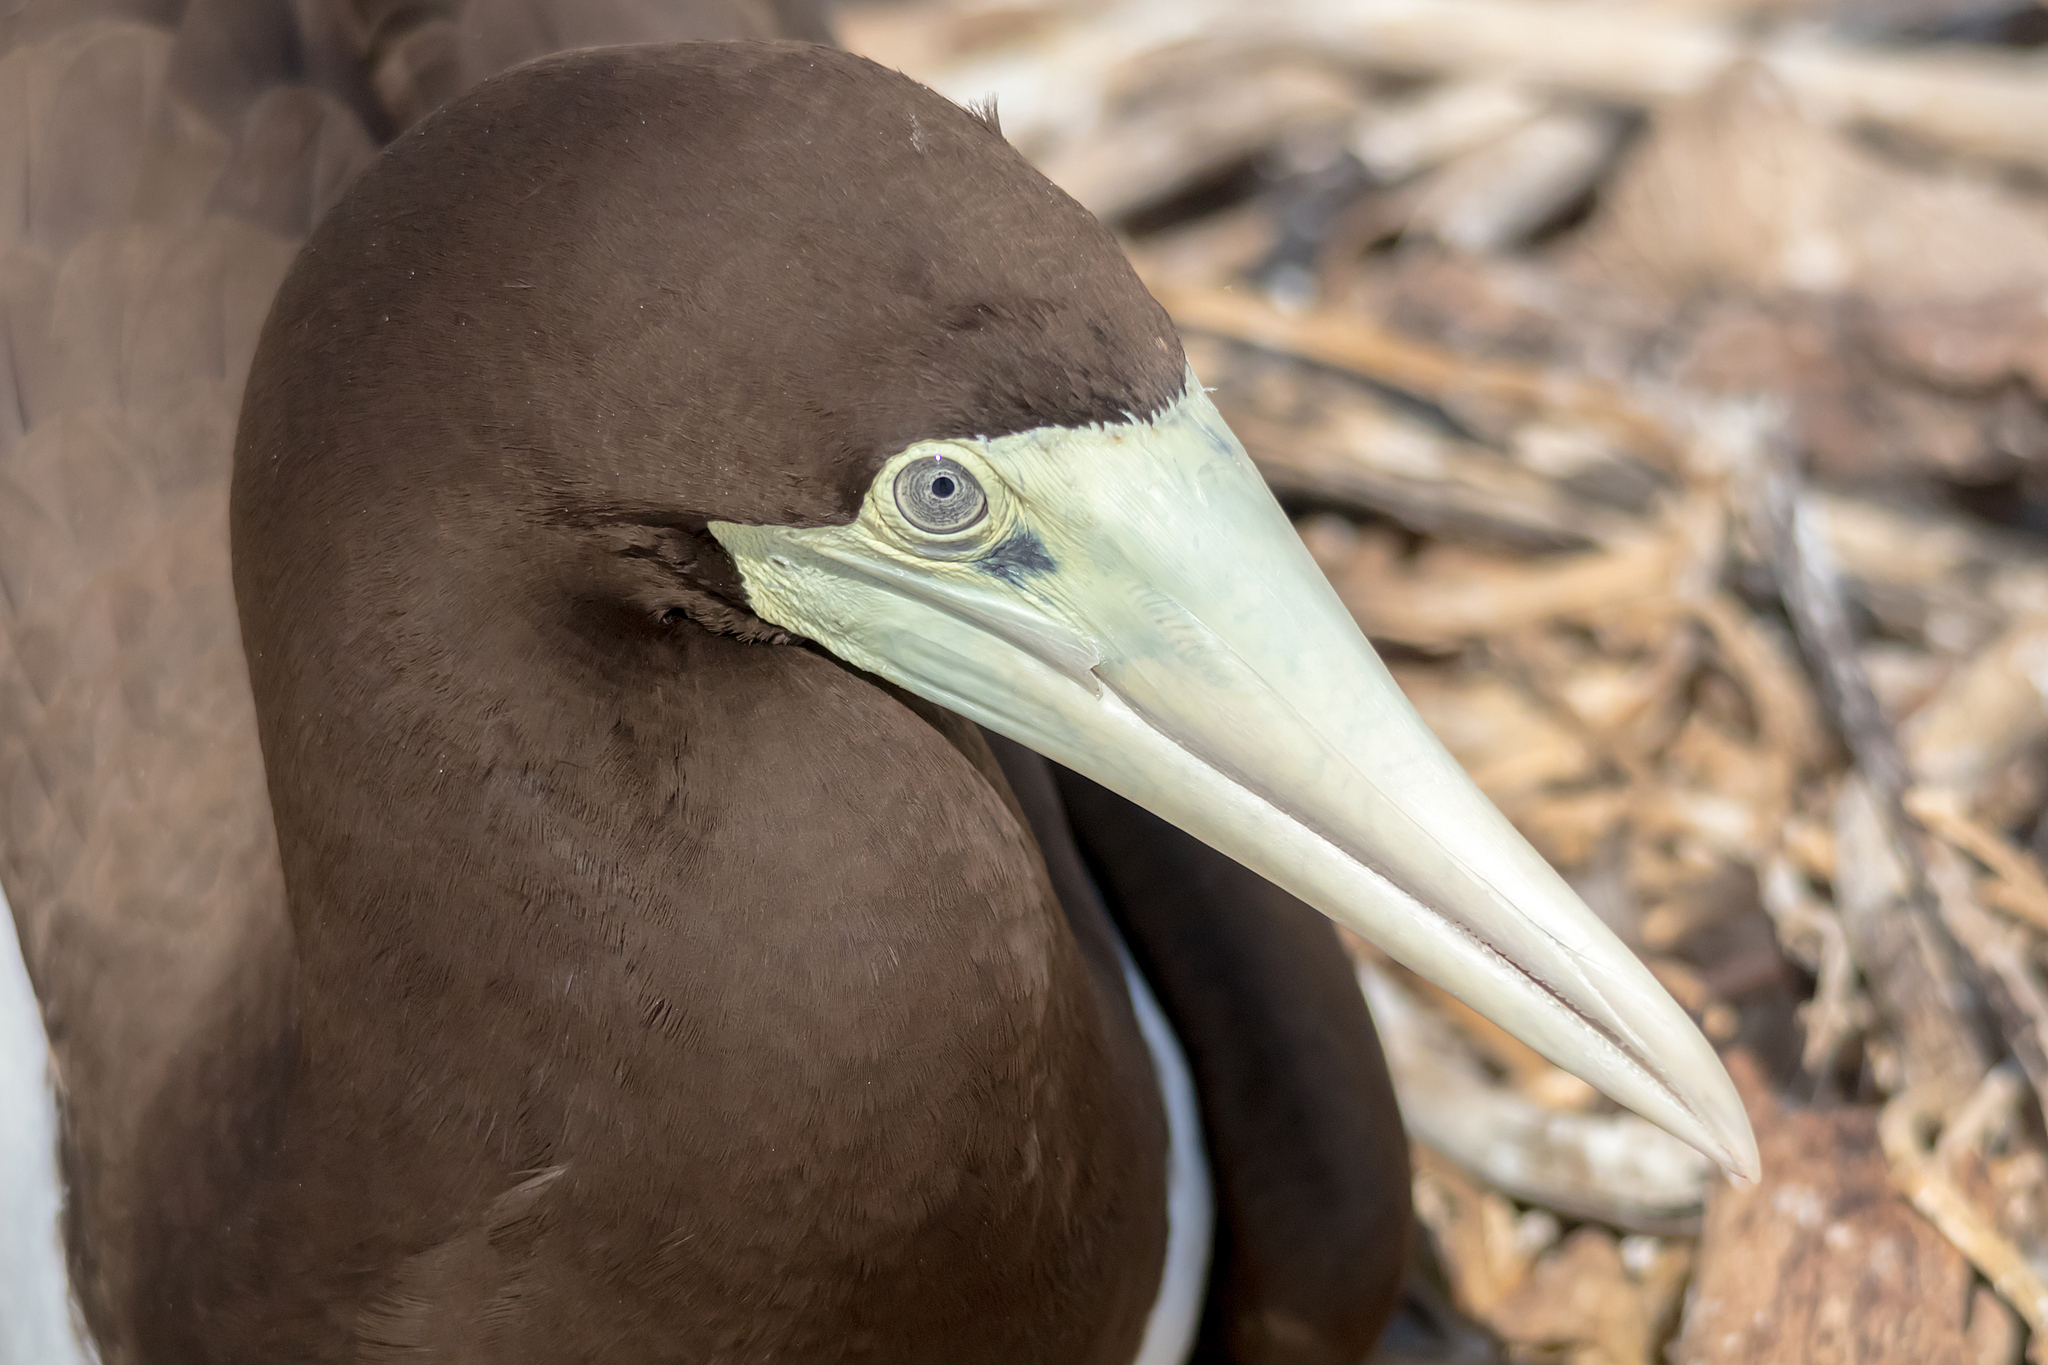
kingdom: Animalia
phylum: Chordata
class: Aves
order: Suliformes
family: Sulidae
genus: Sula
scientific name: Sula leucogaster
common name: Brown booby
